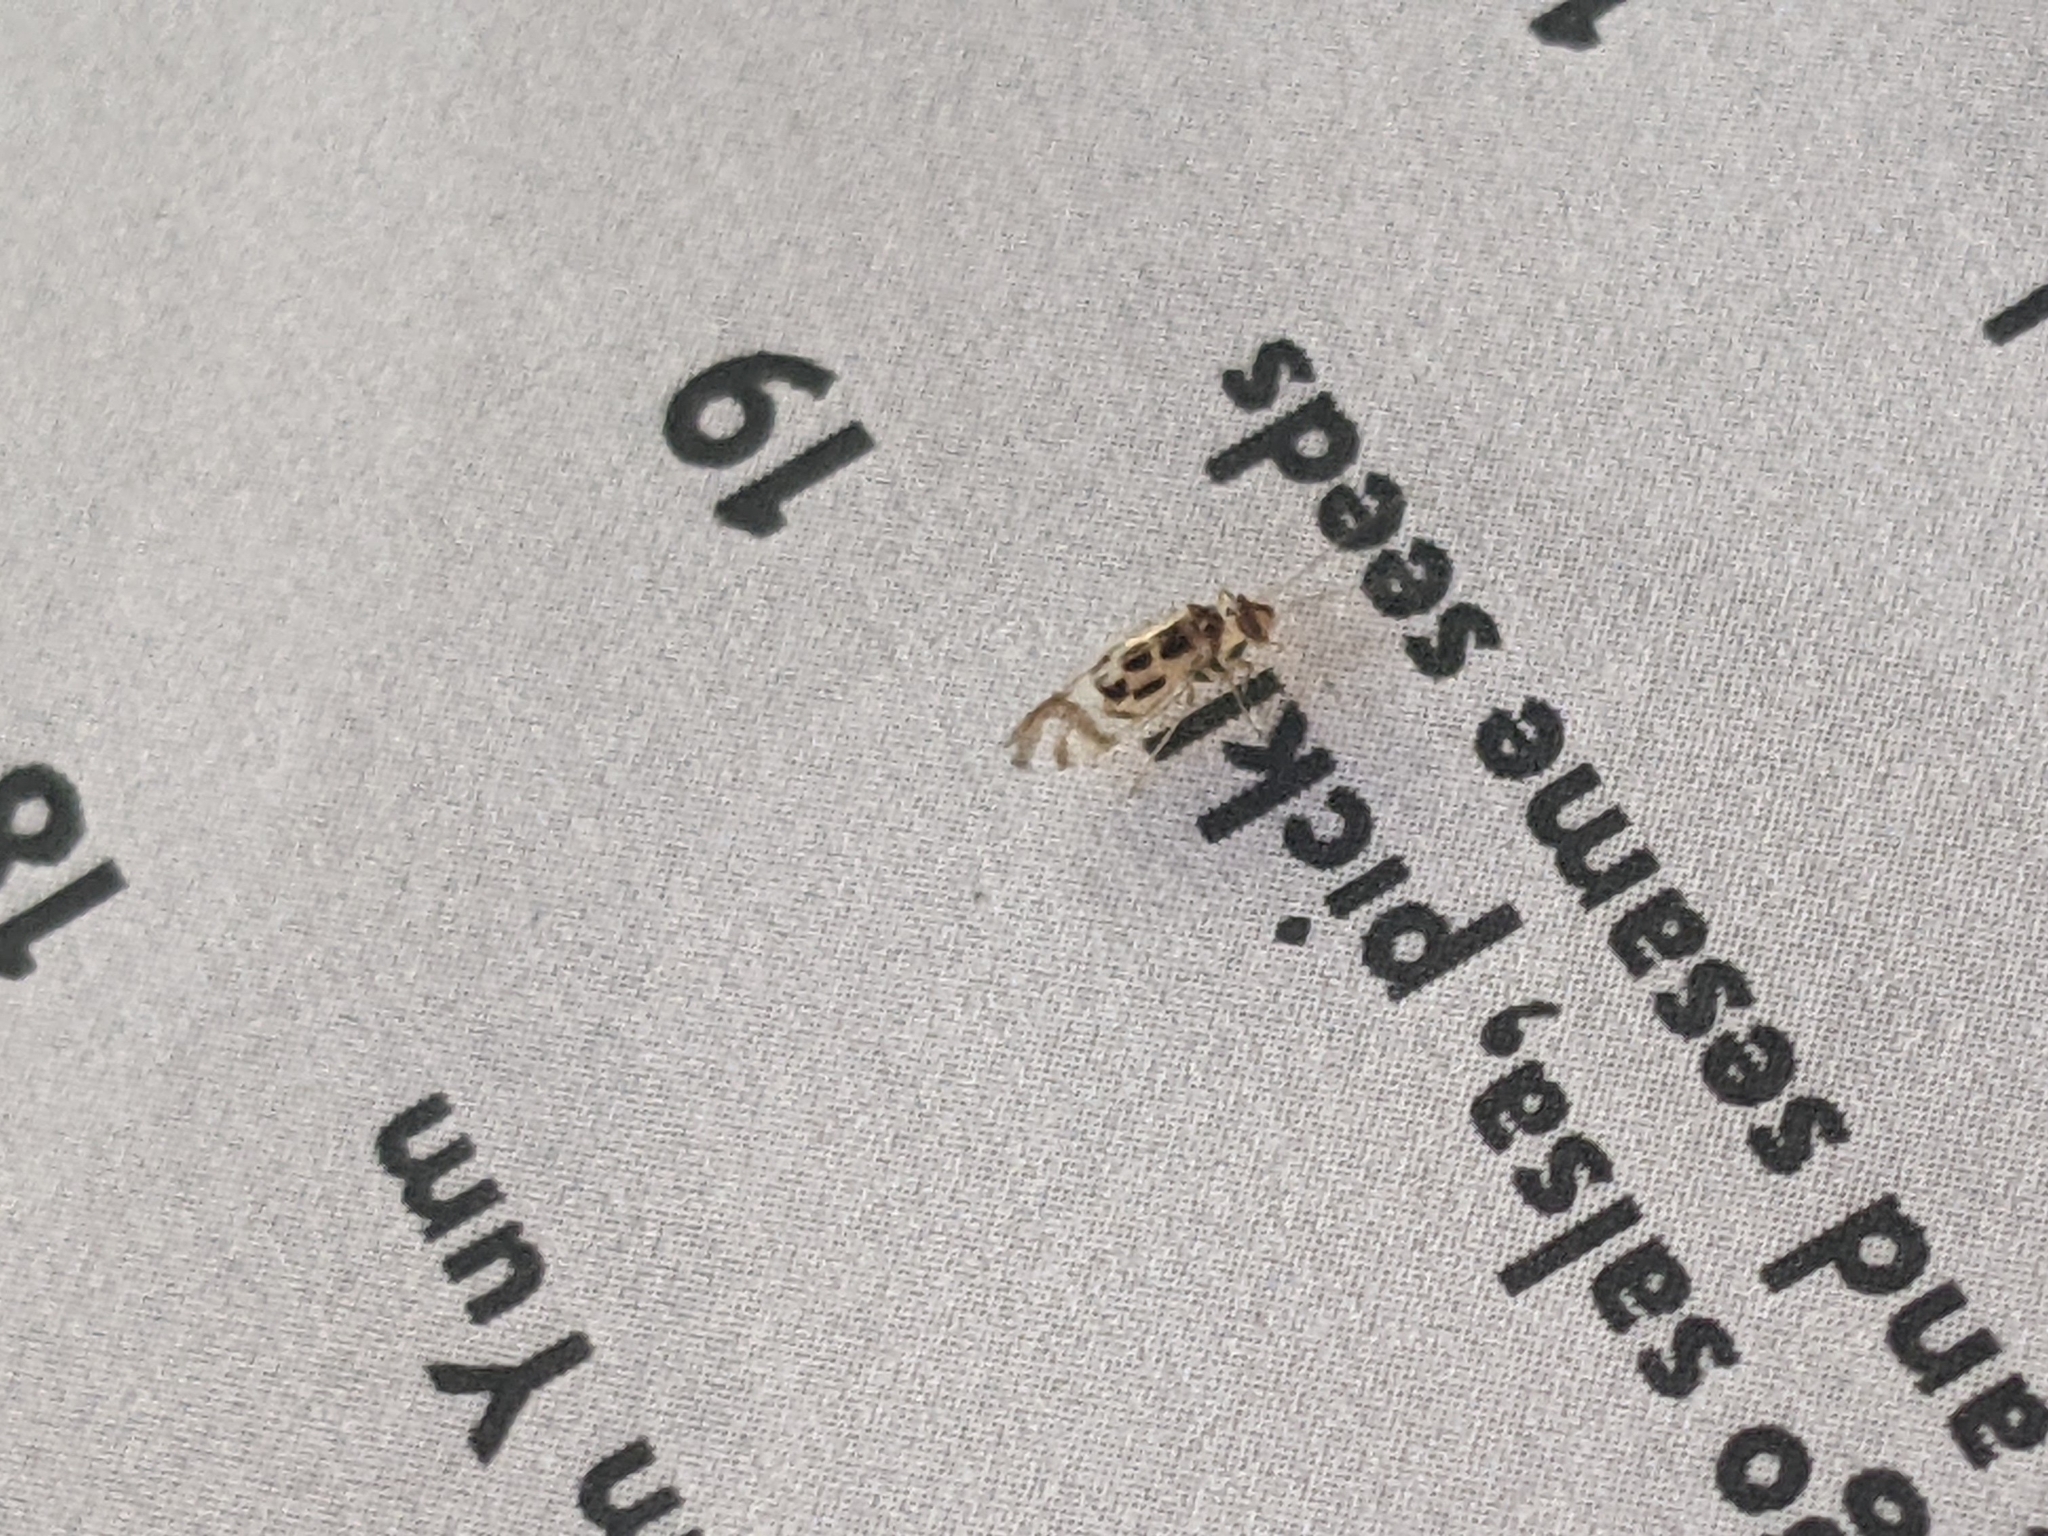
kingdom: Animalia
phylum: Arthropoda
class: Insecta
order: Psocodea
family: Stenopsocidae
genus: Graphopsocus
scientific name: Graphopsocus cruciatus
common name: Lizard bark louse
